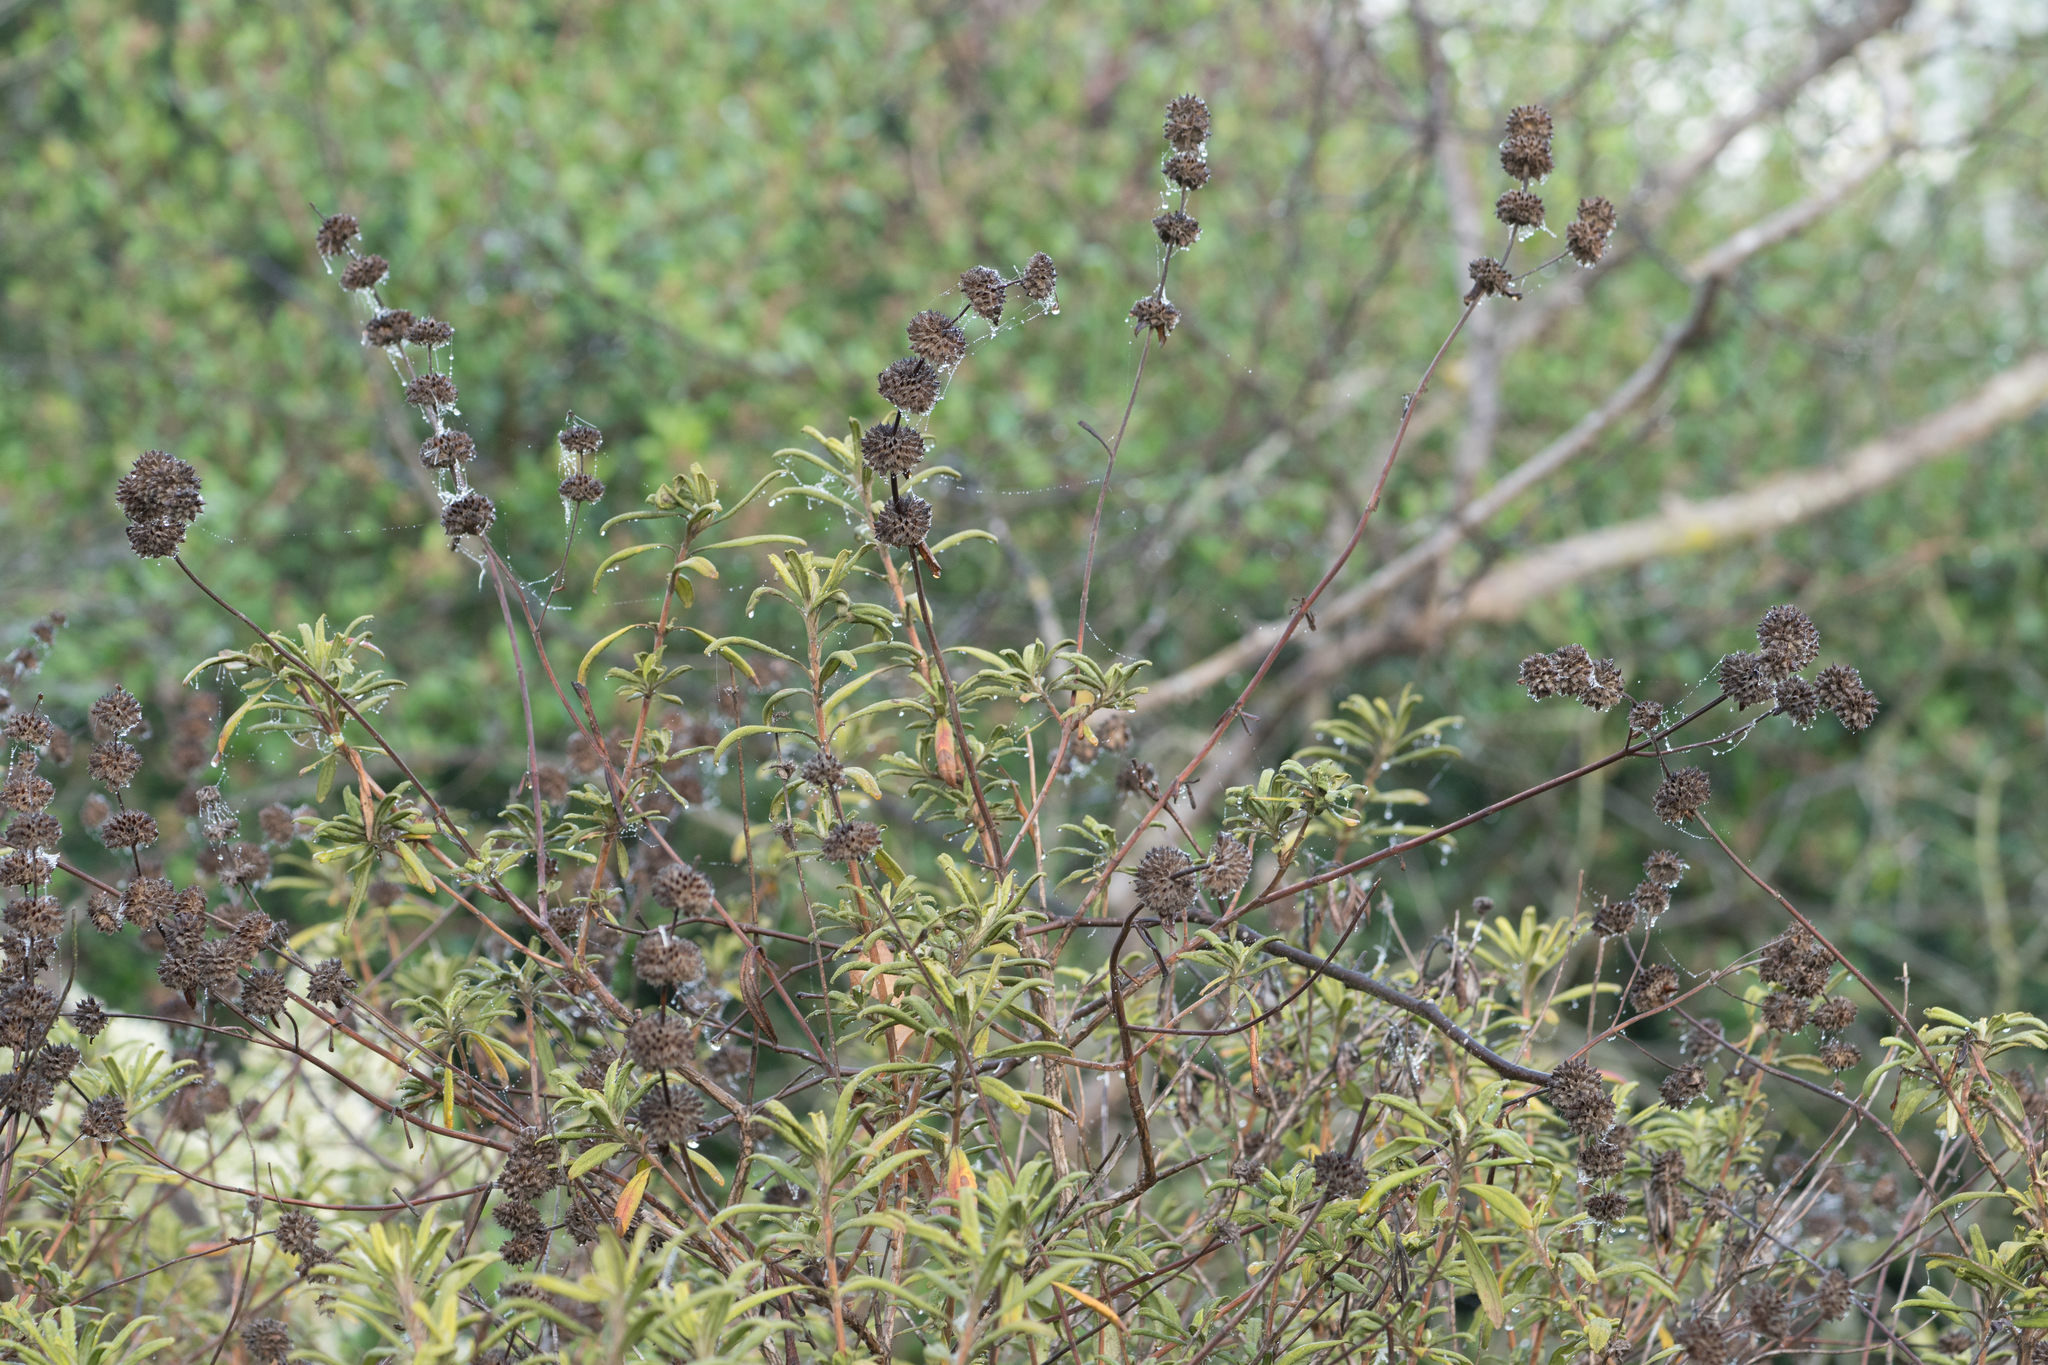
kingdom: Plantae
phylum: Tracheophyta
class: Magnoliopsida
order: Lamiales
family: Lamiaceae
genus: Salvia
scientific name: Salvia mellifera
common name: Black sage
